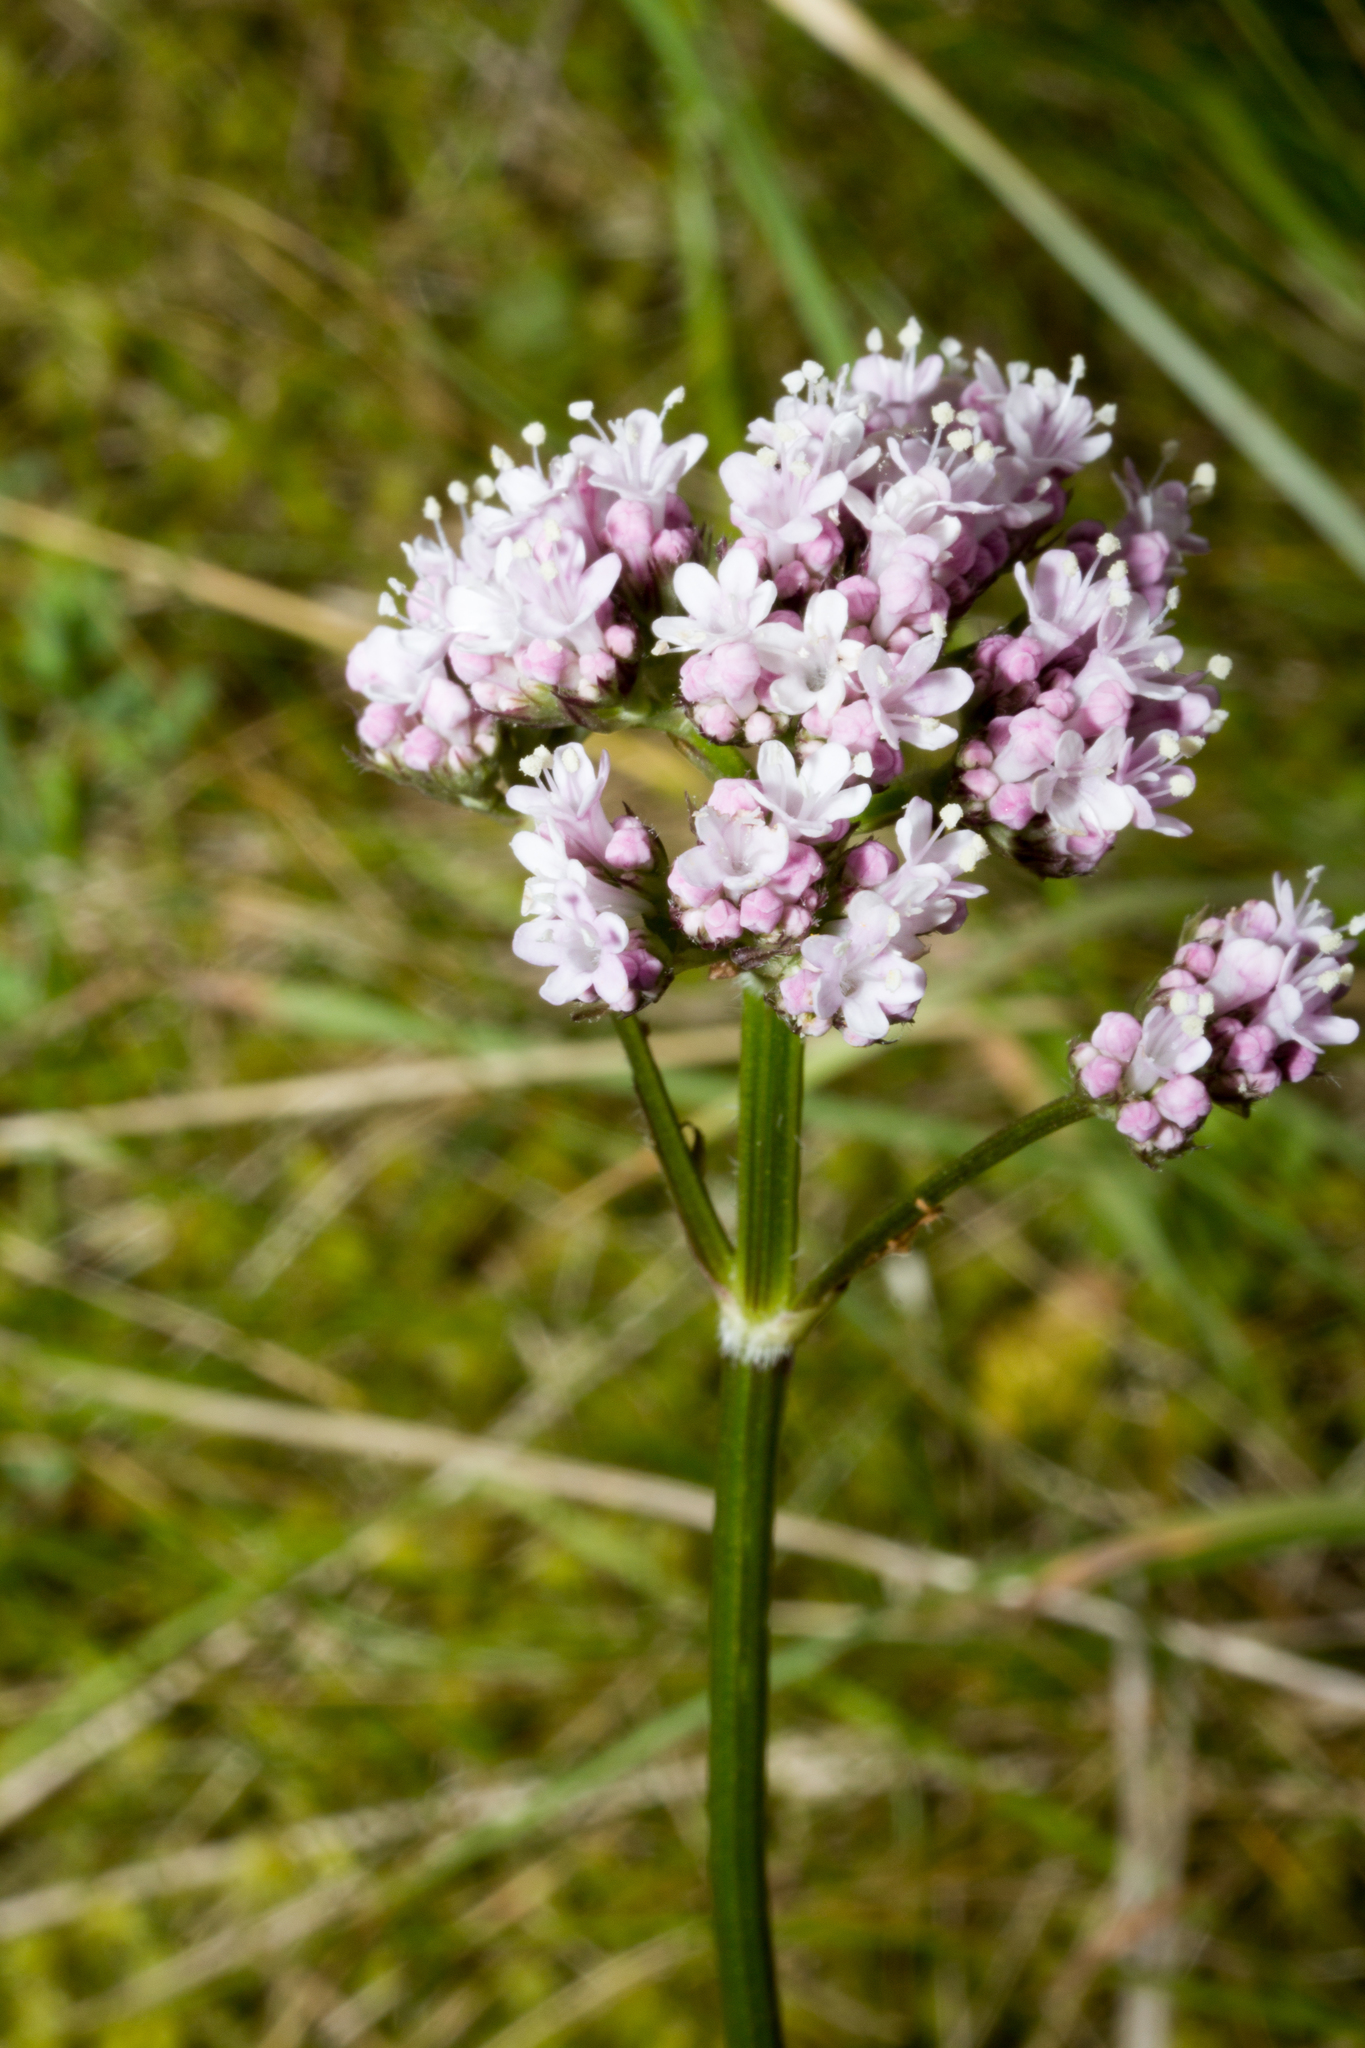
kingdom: Plantae
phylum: Tracheophyta
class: Magnoliopsida
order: Dipsacales
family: Caprifoliaceae
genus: Valeriana
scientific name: Valeriana officinalis
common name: Common valerian
